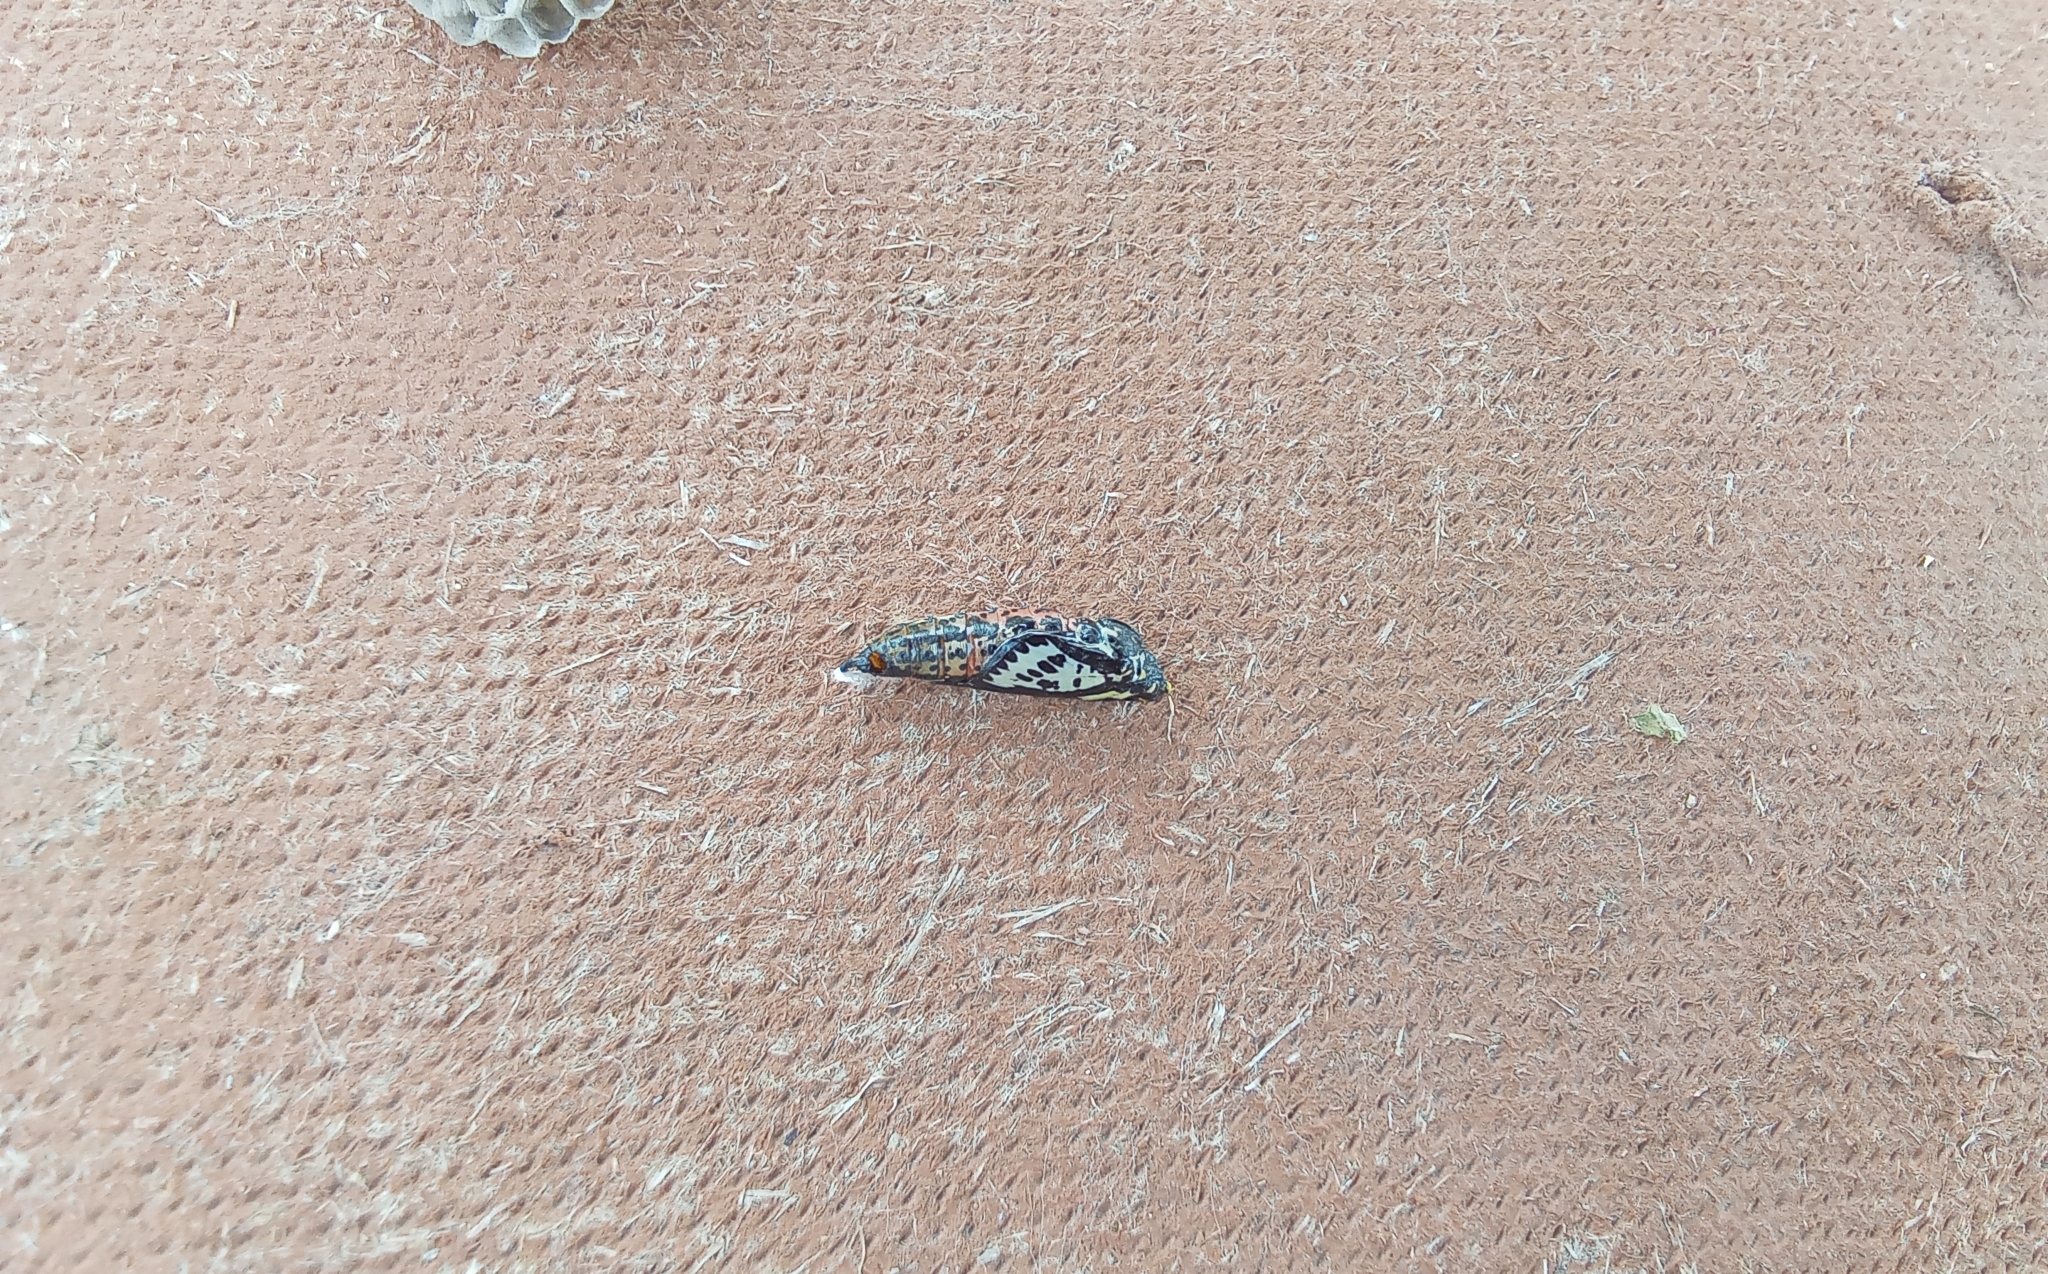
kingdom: Animalia
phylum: Arthropoda
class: Insecta
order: Lepidoptera
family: Pieridae
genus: Aporia
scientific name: Aporia crataegi
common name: Black-veined white
